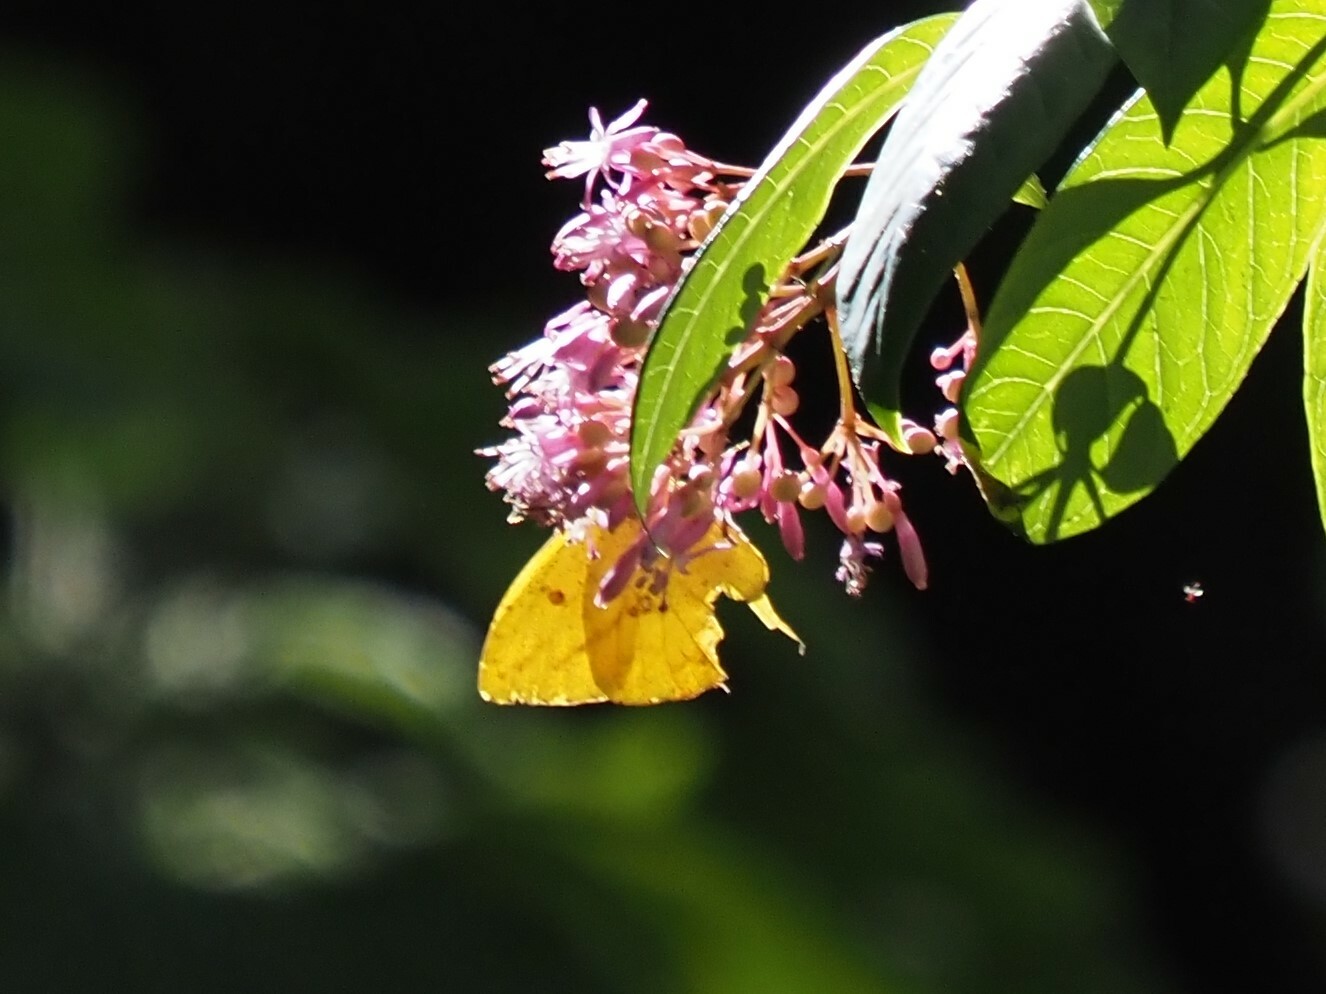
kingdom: Animalia
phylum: Arthropoda
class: Insecta
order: Lepidoptera
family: Pieridae
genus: Phoebis
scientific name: Phoebis argante
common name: Apricot sulphur
